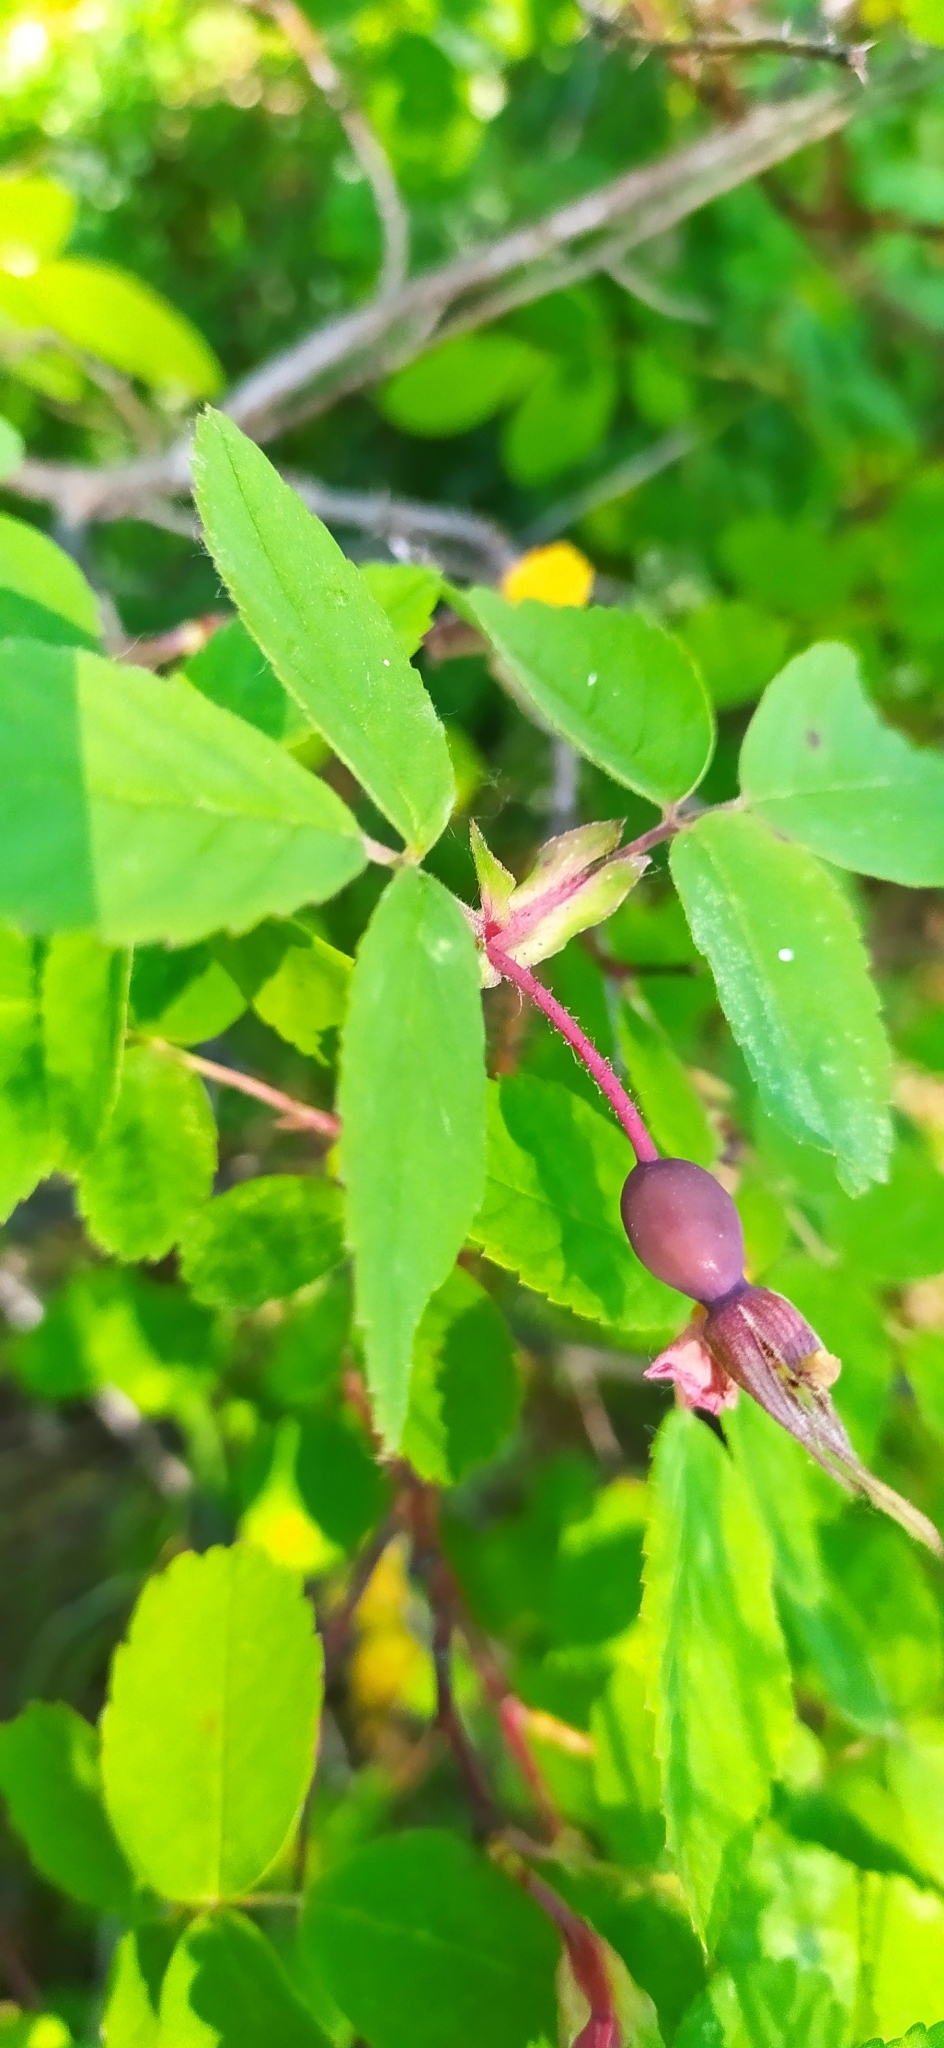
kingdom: Plantae
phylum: Tracheophyta
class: Magnoliopsida
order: Rosales
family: Rosaceae
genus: Rosa
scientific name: Rosa majalis
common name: Cinnamon rose
